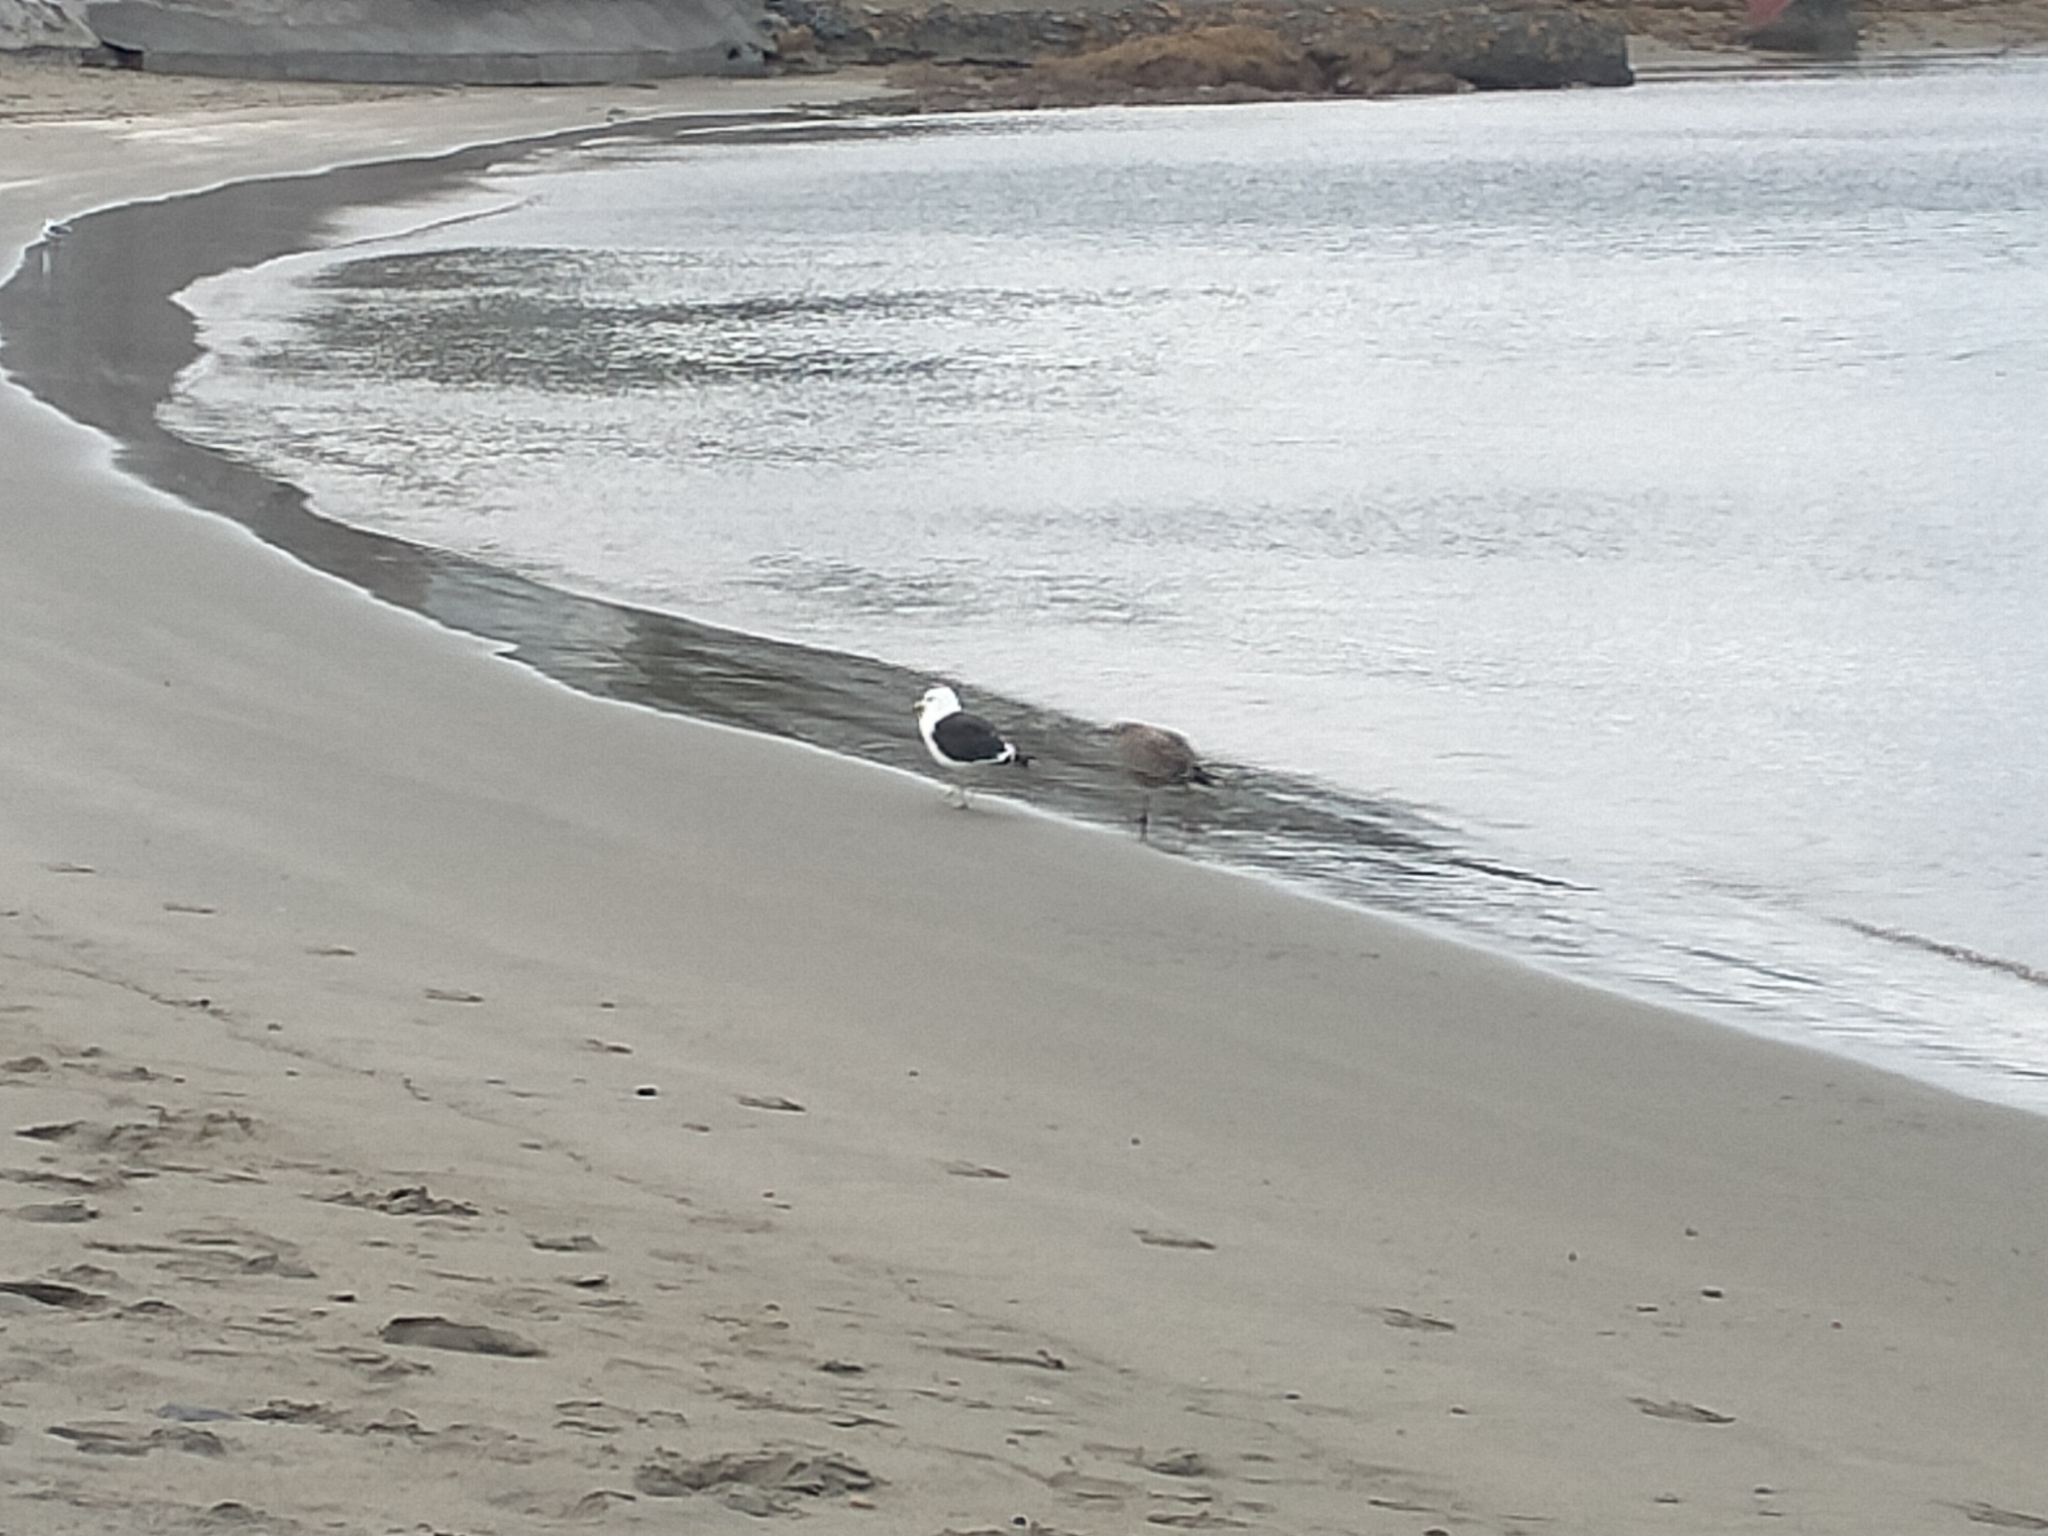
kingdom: Animalia
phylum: Chordata
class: Aves
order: Charadriiformes
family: Laridae
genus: Larus
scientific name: Larus dominicanus
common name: Kelp gull
